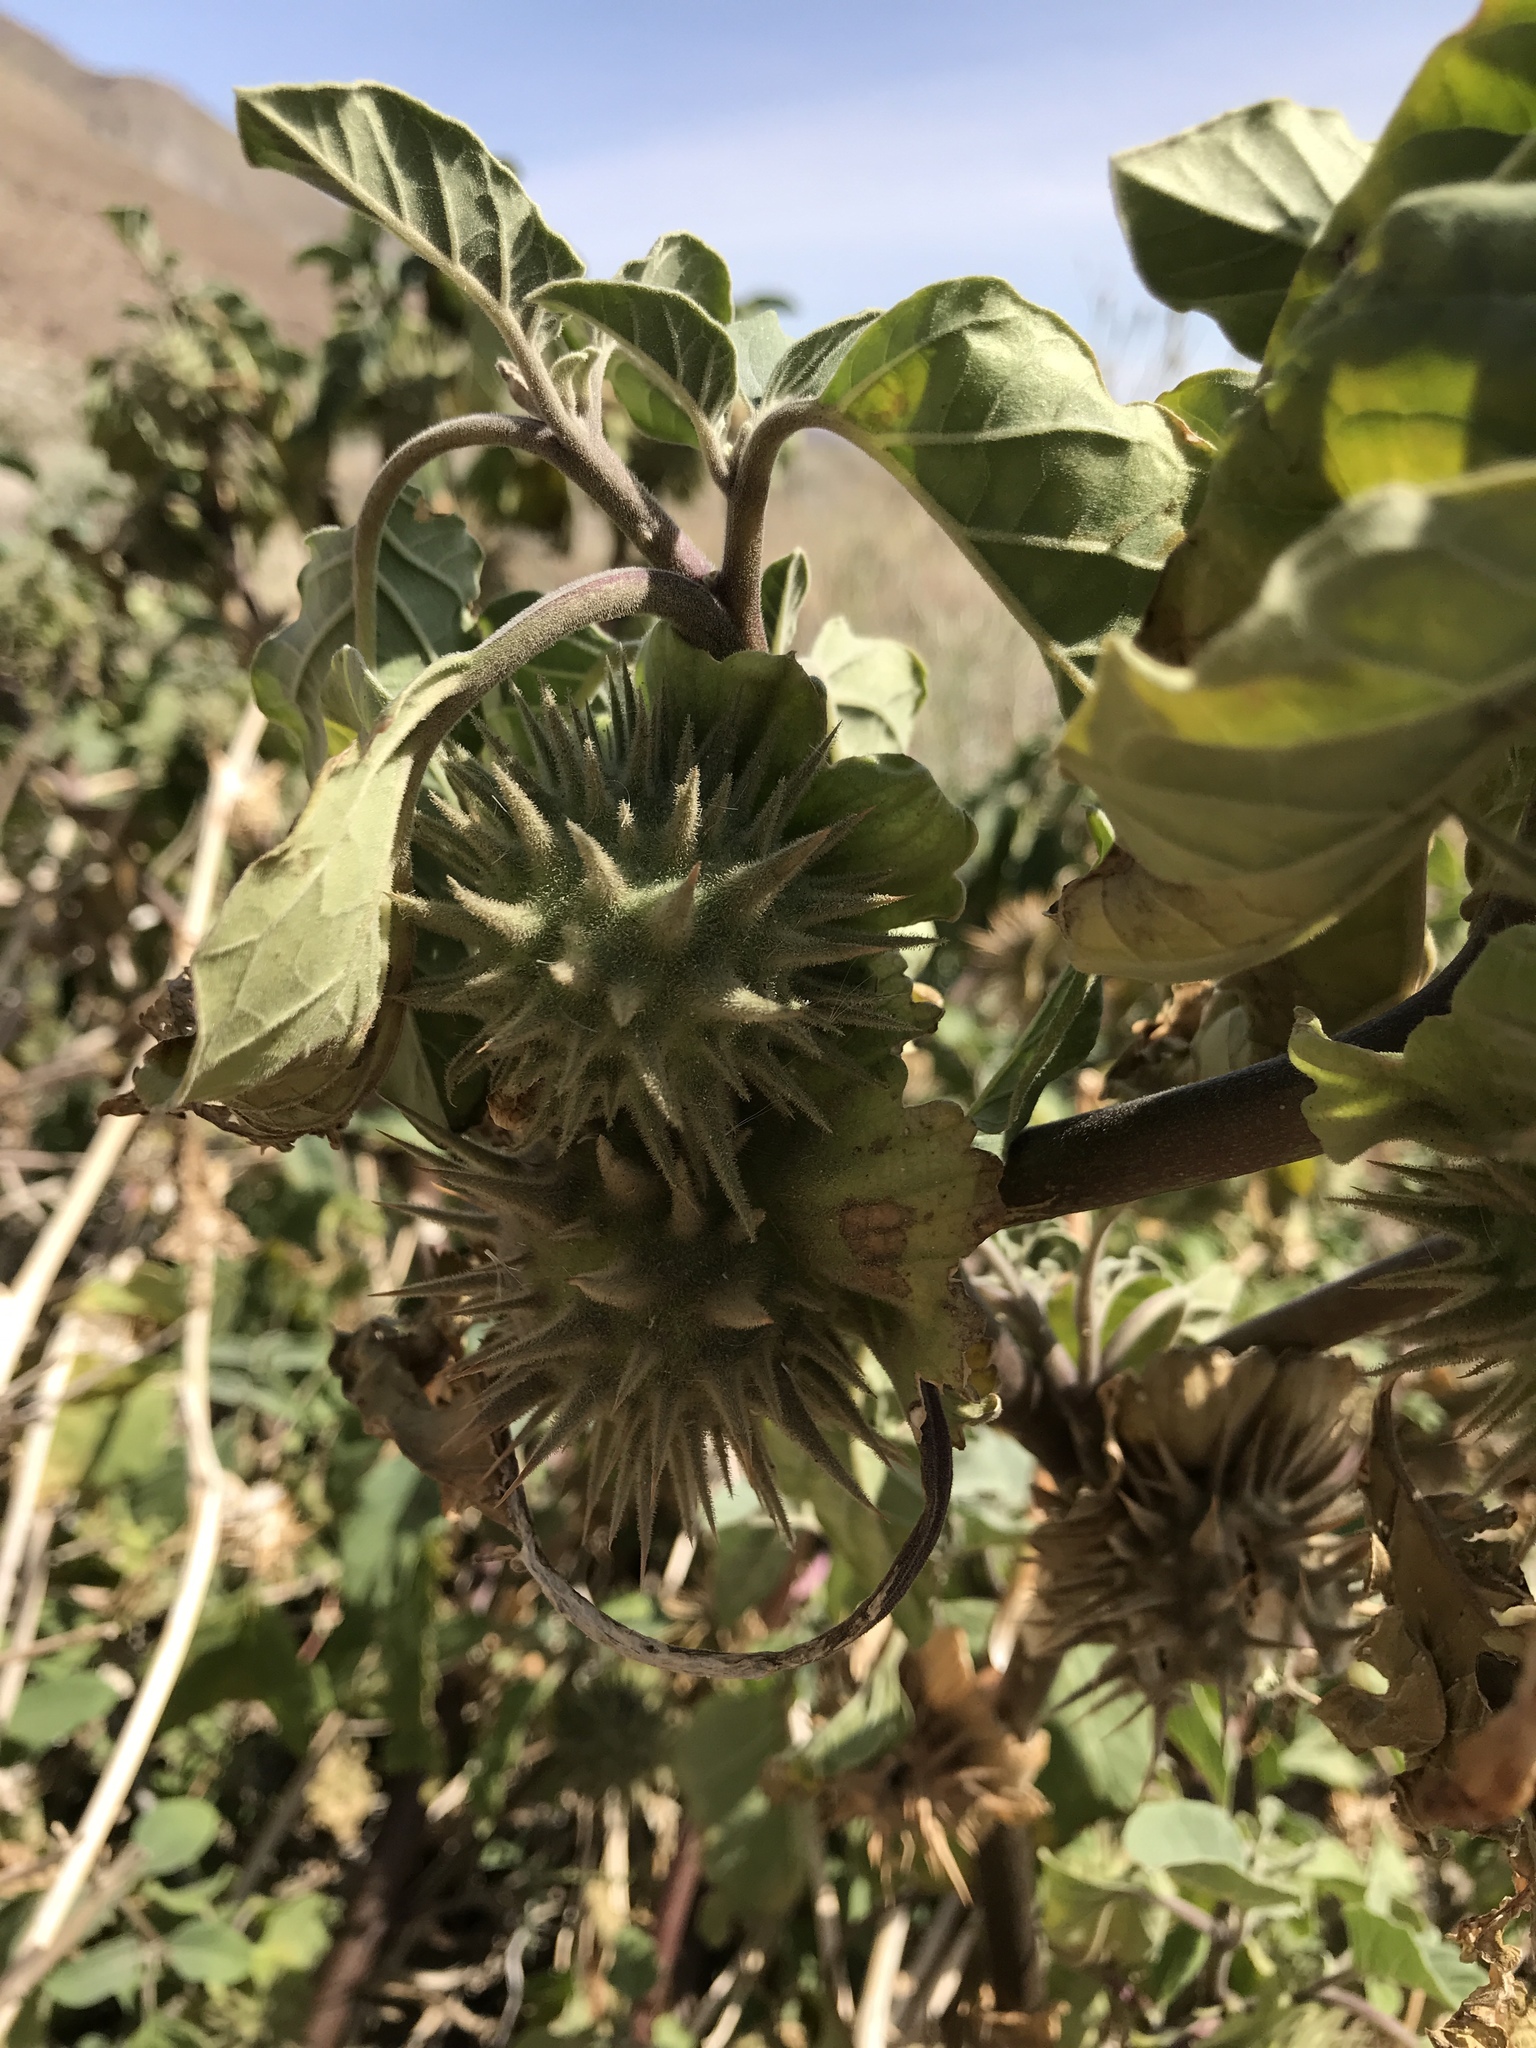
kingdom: Plantae
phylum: Tracheophyta
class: Magnoliopsida
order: Solanales
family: Solanaceae
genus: Datura
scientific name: Datura discolor
